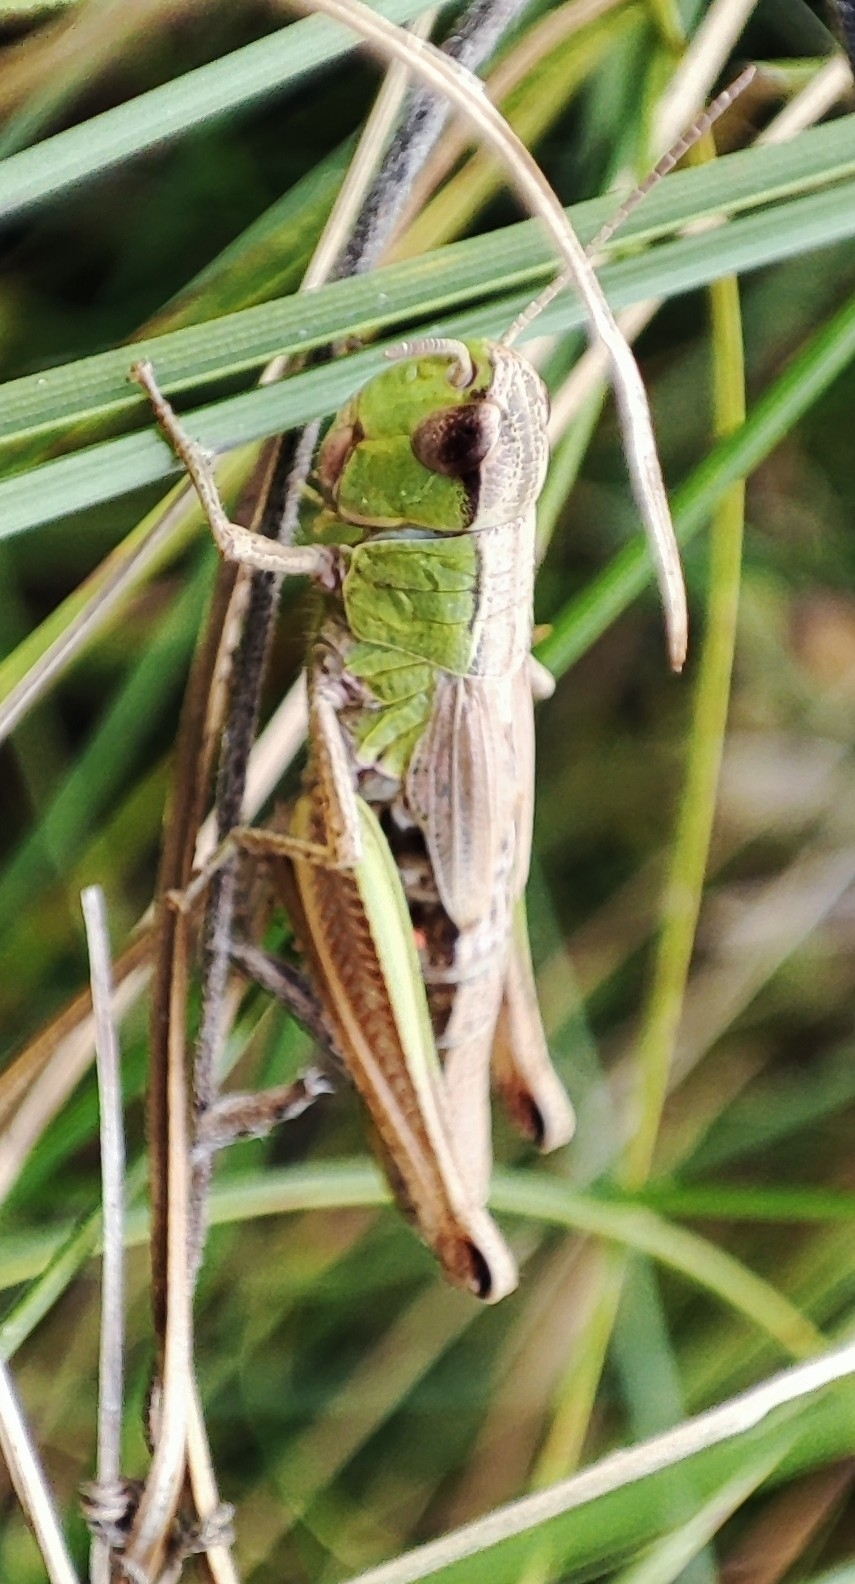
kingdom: Animalia
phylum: Arthropoda
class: Insecta
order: Orthoptera
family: Acrididae
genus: Pseudochorthippus
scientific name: Pseudochorthippus parallelus
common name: Meadow grasshopper
